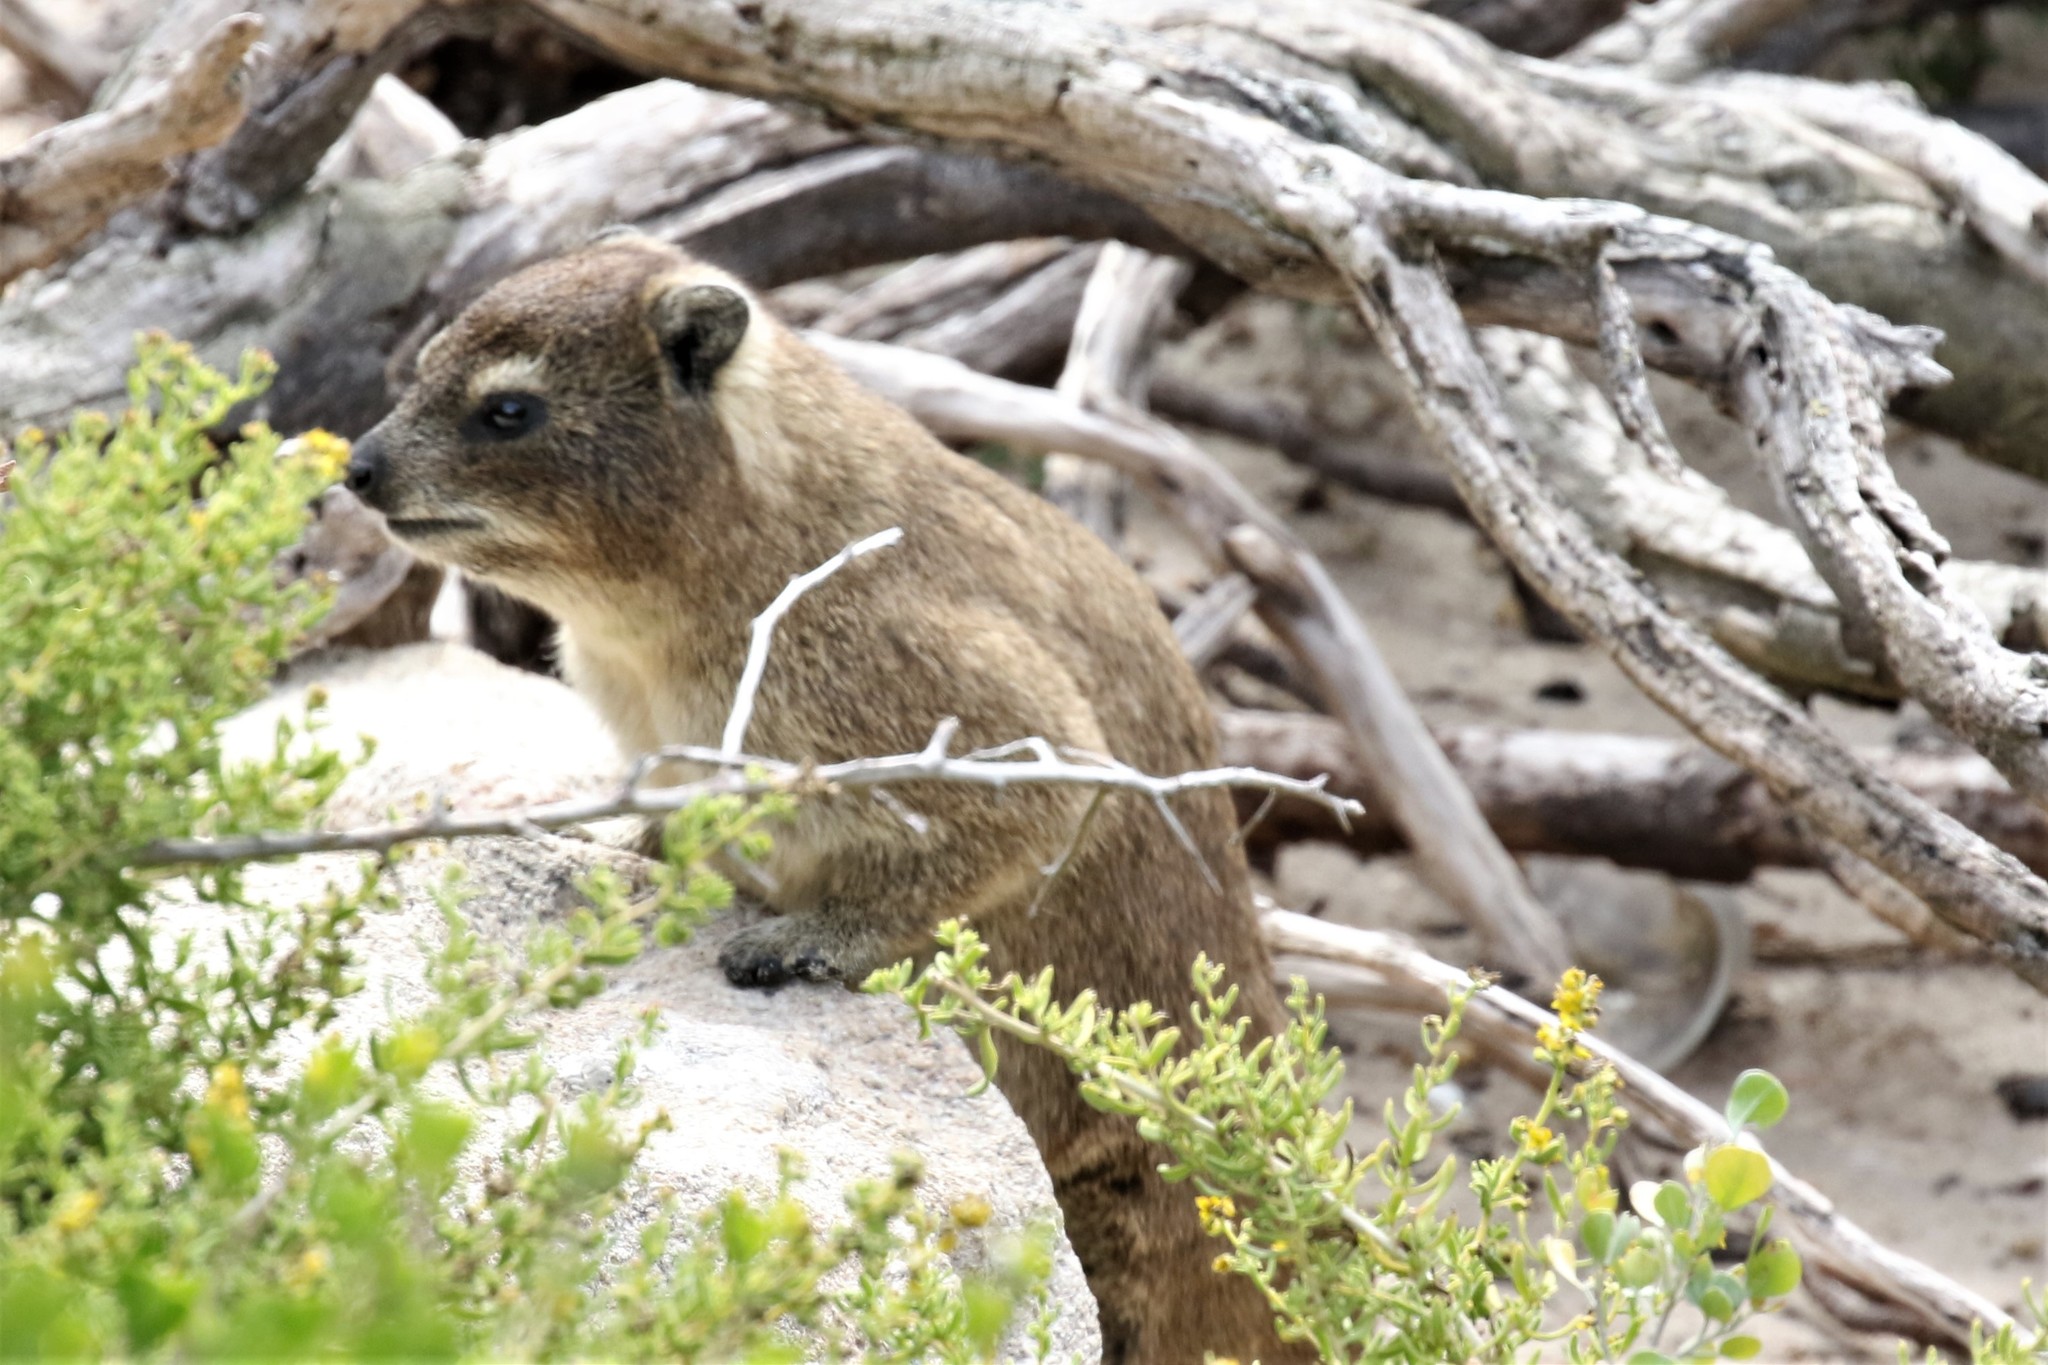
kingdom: Animalia
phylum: Chordata
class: Mammalia
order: Hyracoidea
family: Procaviidae
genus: Procavia
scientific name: Procavia capensis
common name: Rock hyrax
